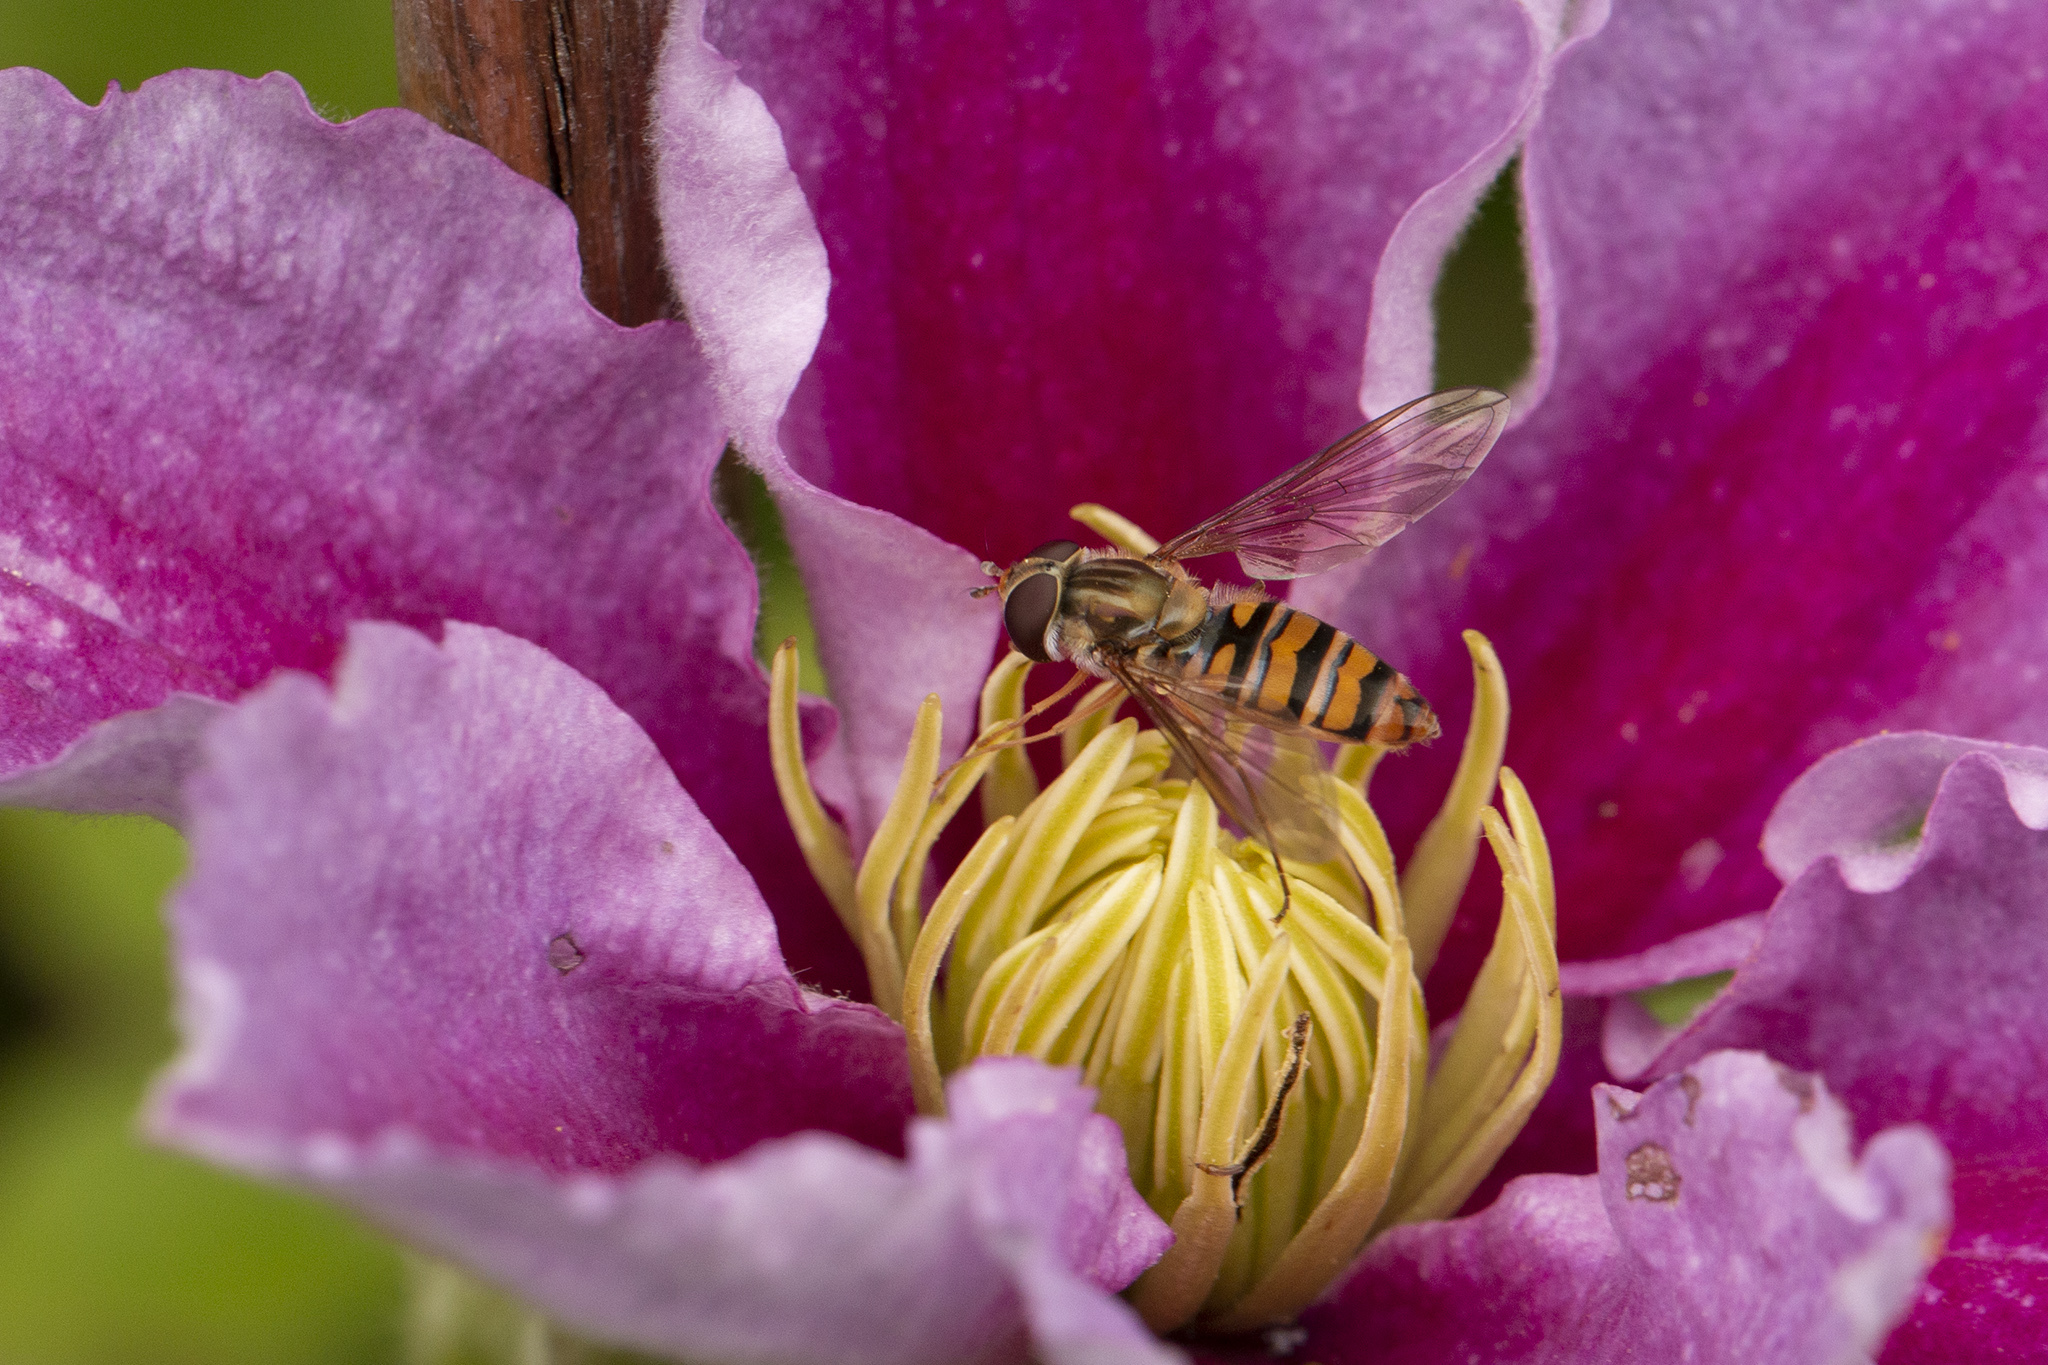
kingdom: Animalia
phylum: Arthropoda
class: Insecta
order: Diptera
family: Syrphidae
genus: Episyrphus
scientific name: Episyrphus balteatus
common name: Marmalade hoverfly
